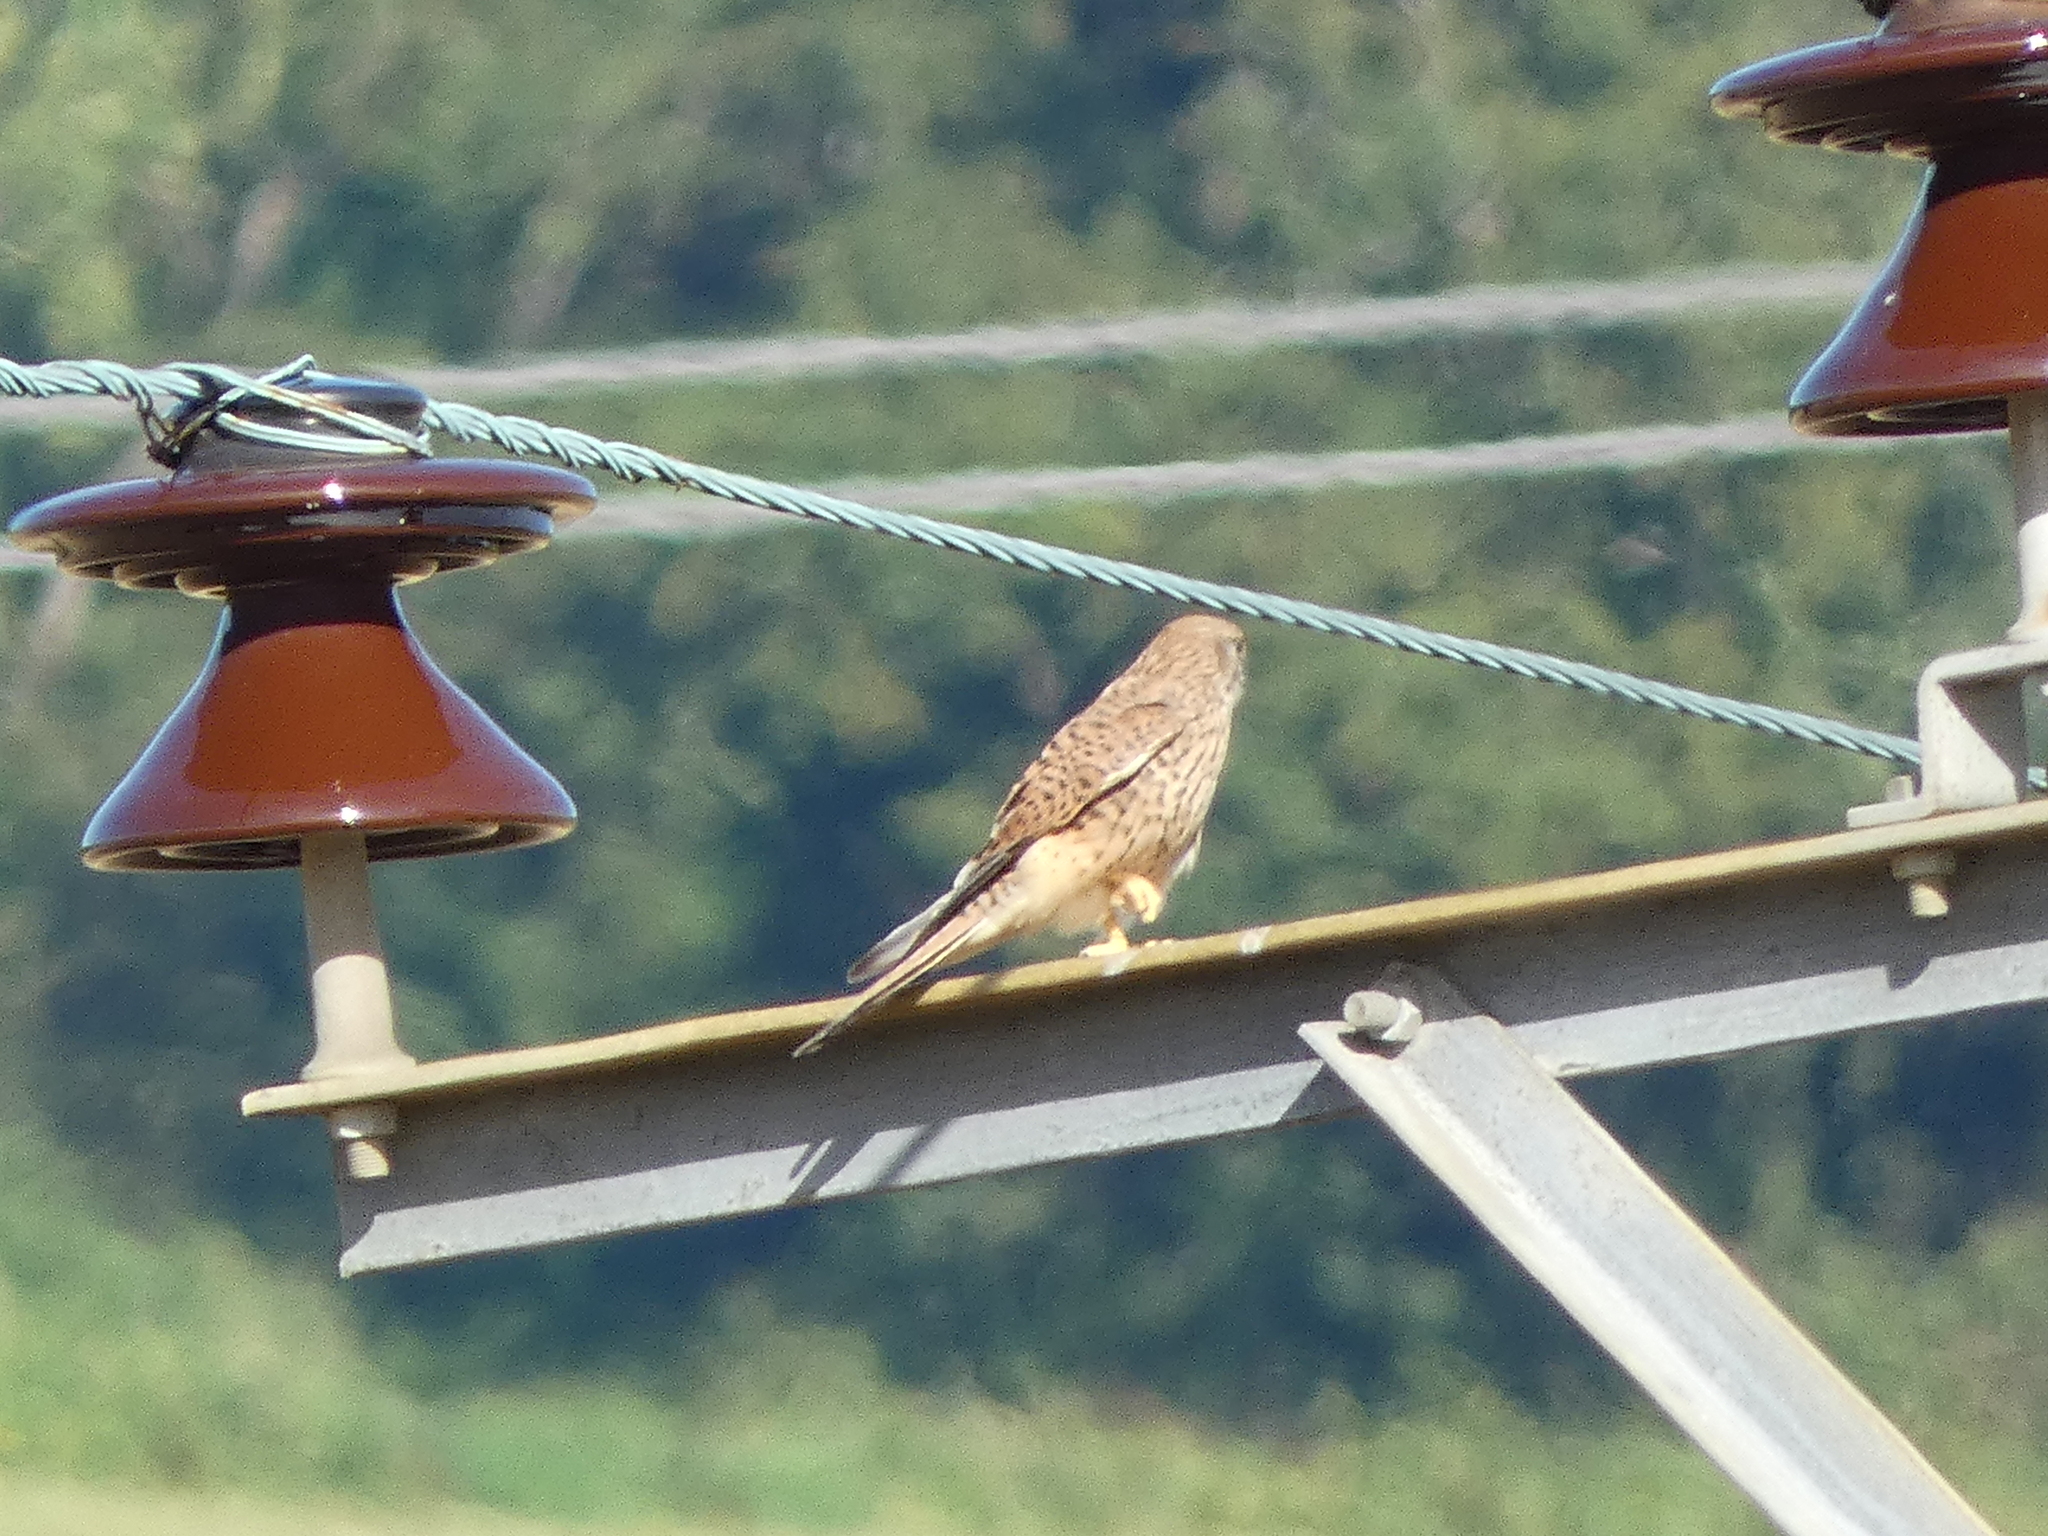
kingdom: Animalia
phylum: Chordata
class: Aves
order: Falconiformes
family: Falconidae
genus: Falco
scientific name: Falco tinnunculus
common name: Common kestrel
